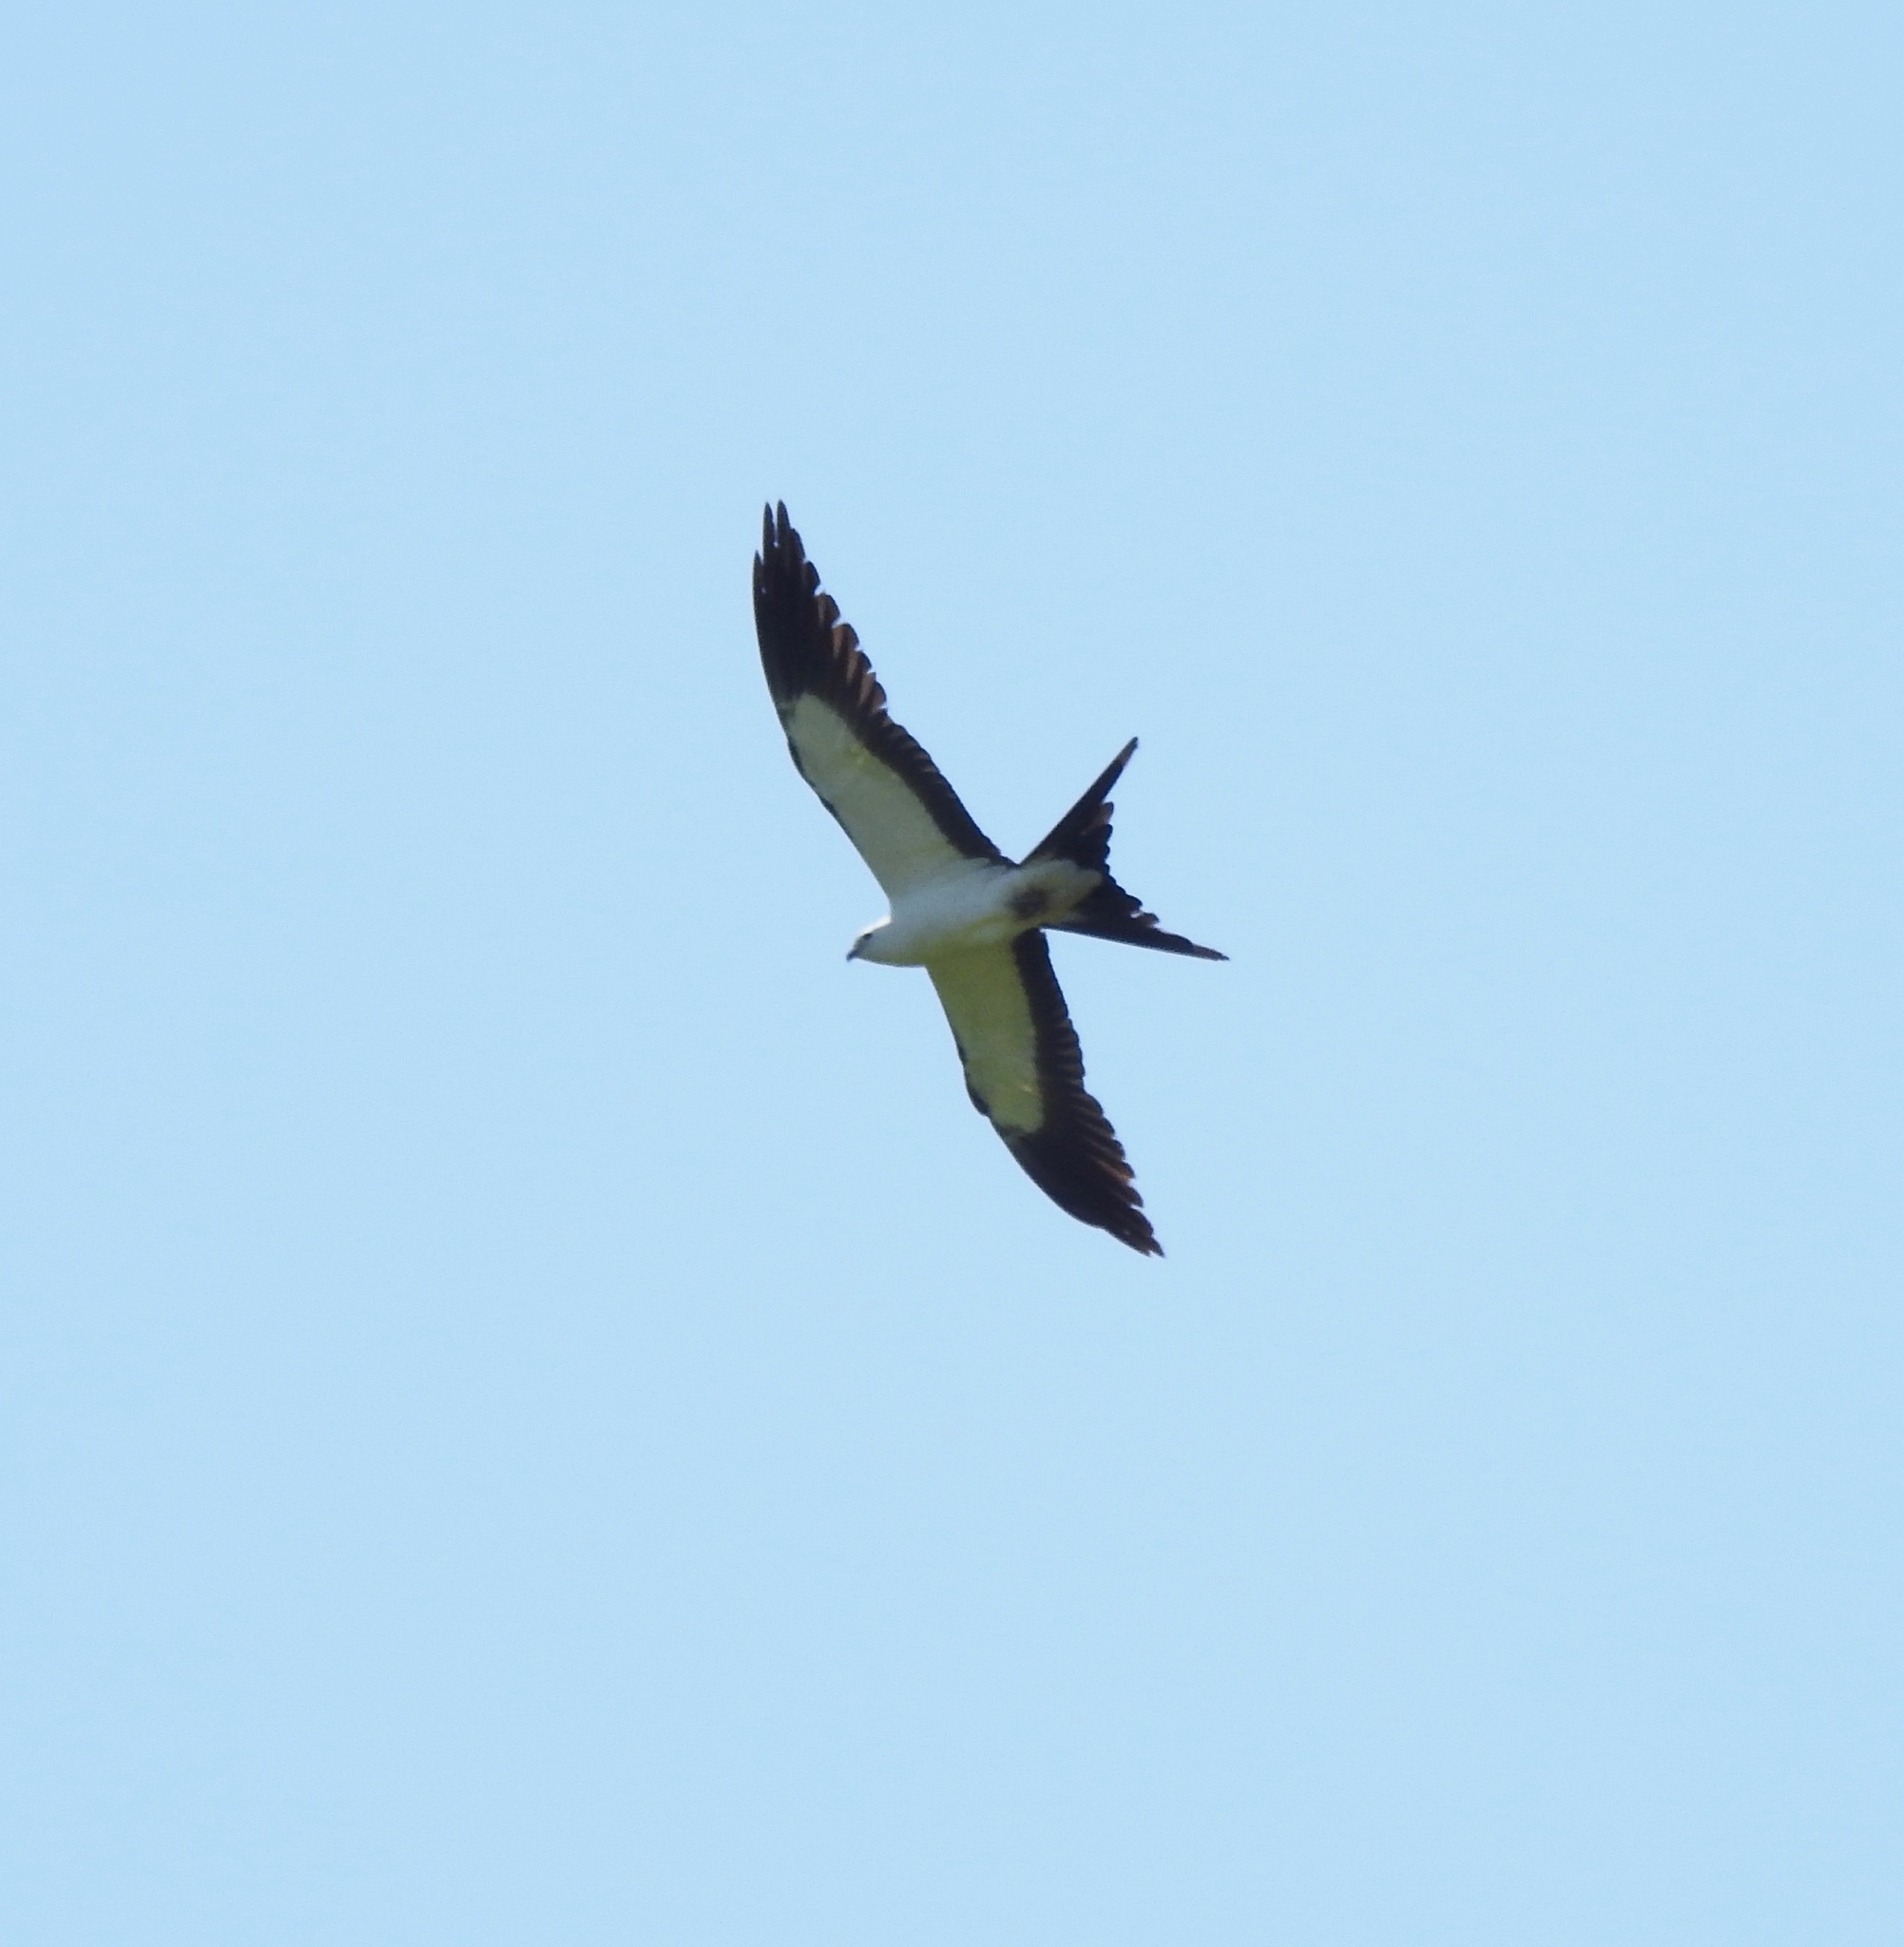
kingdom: Animalia
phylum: Chordata
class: Aves
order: Accipitriformes
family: Accipitridae
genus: Elanoides
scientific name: Elanoides forficatus
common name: Swallow-tailed kite
